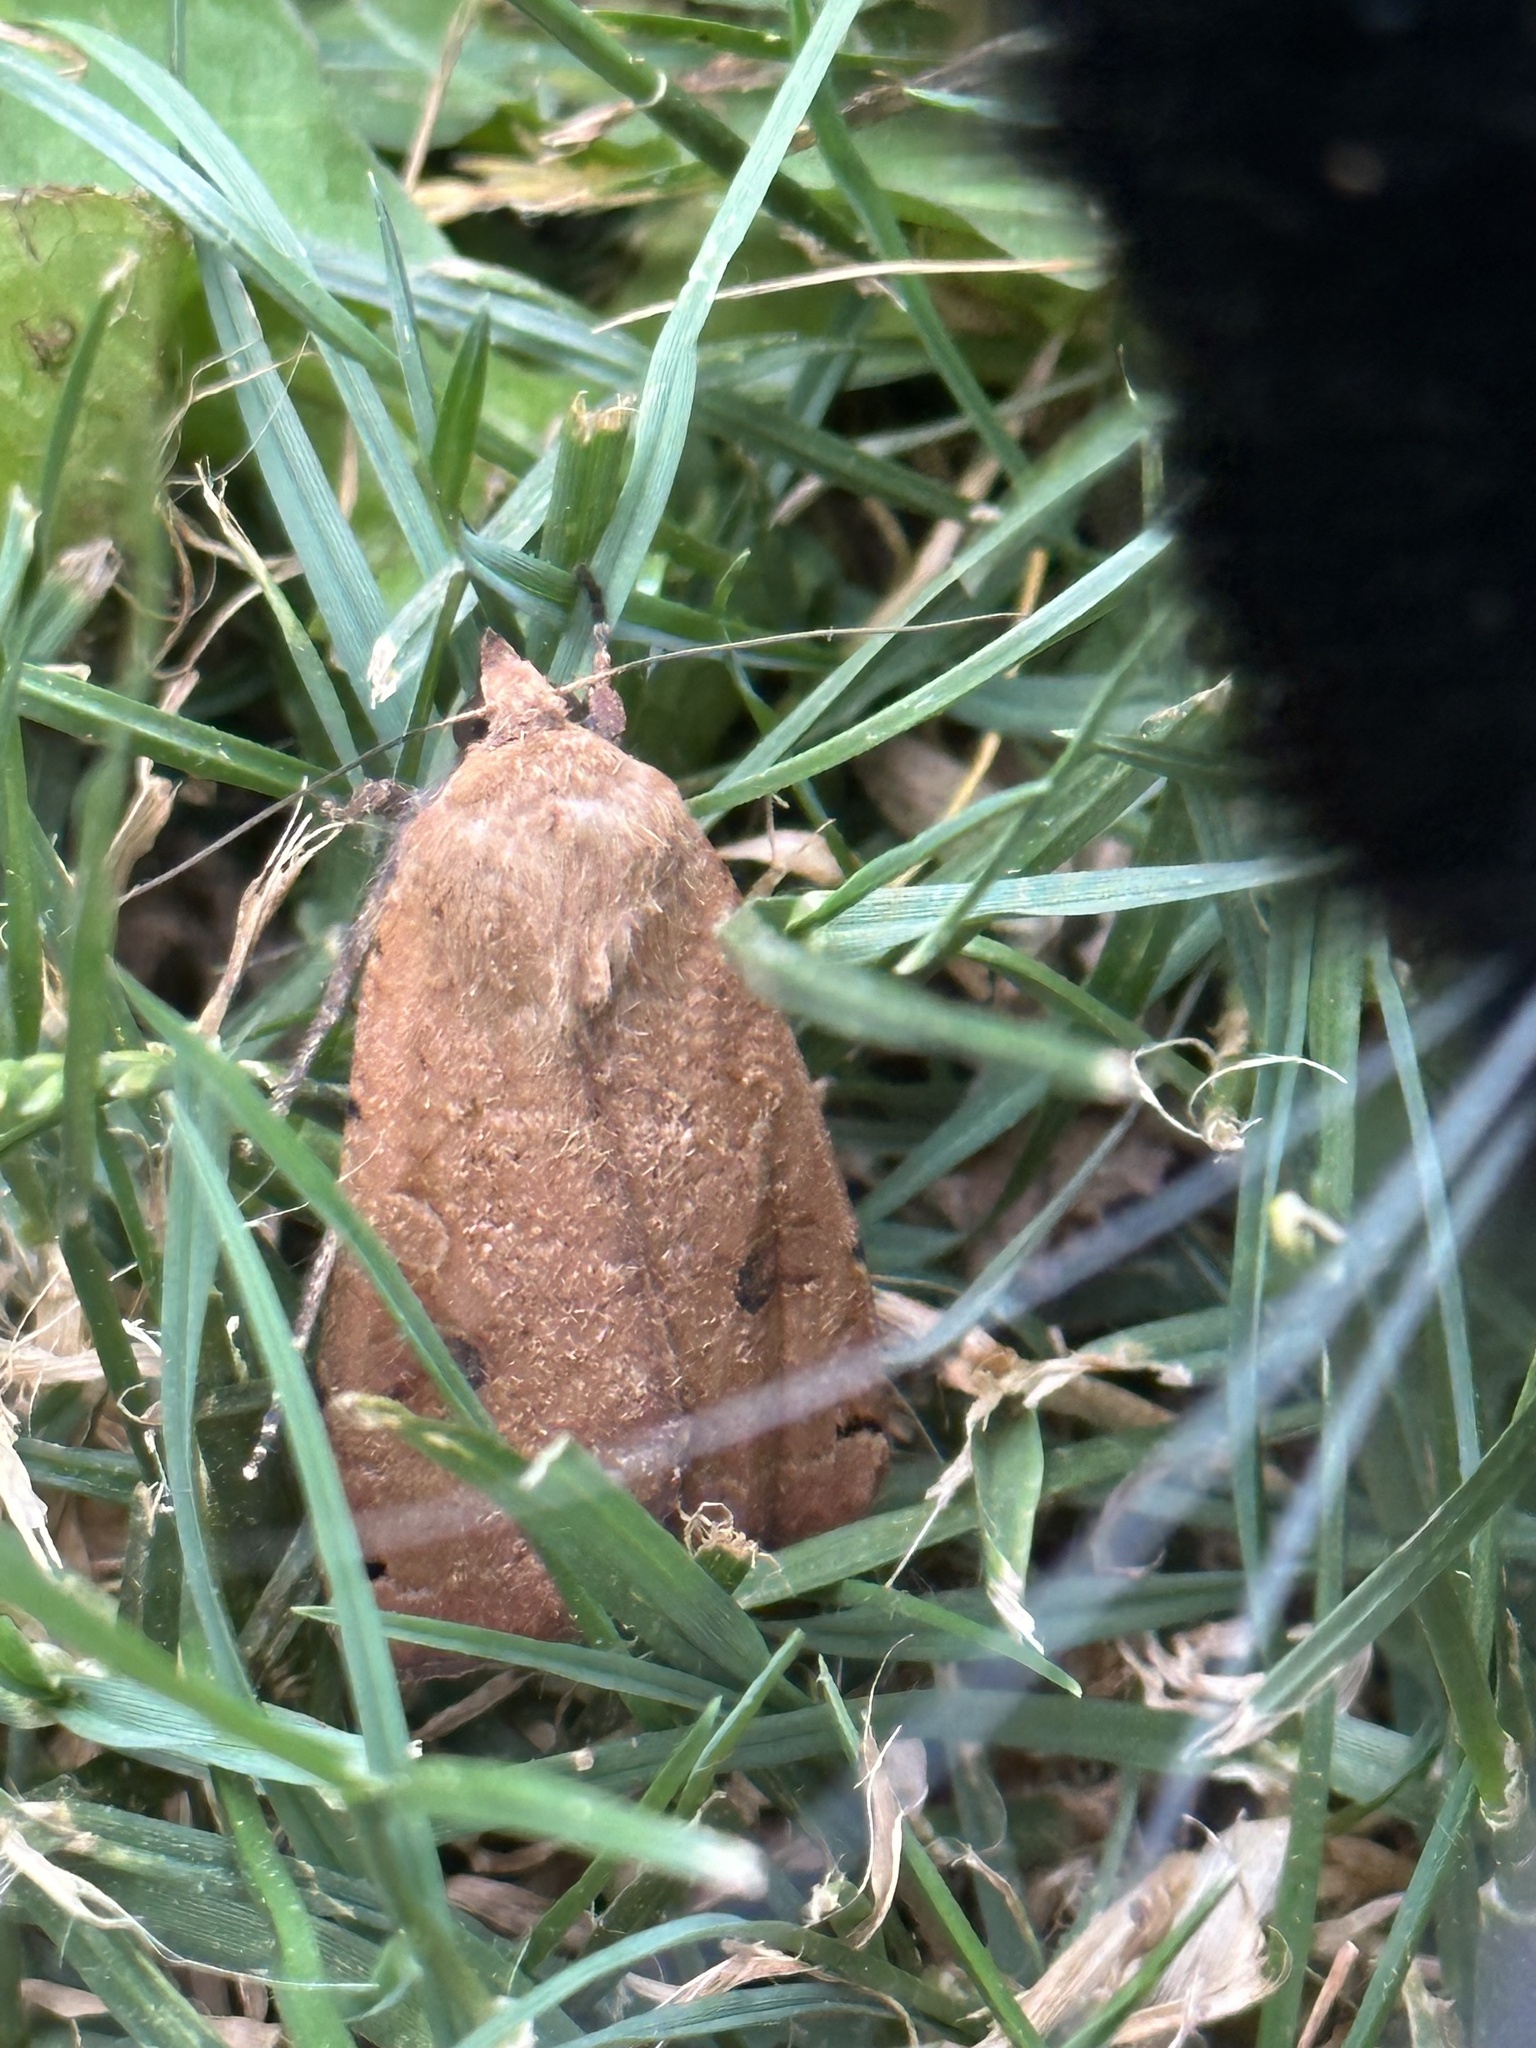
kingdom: Animalia
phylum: Arthropoda
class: Insecta
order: Lepidoptera
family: Noctuidae
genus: Noctua
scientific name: Noctua pronuba
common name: Large yellow underwing
